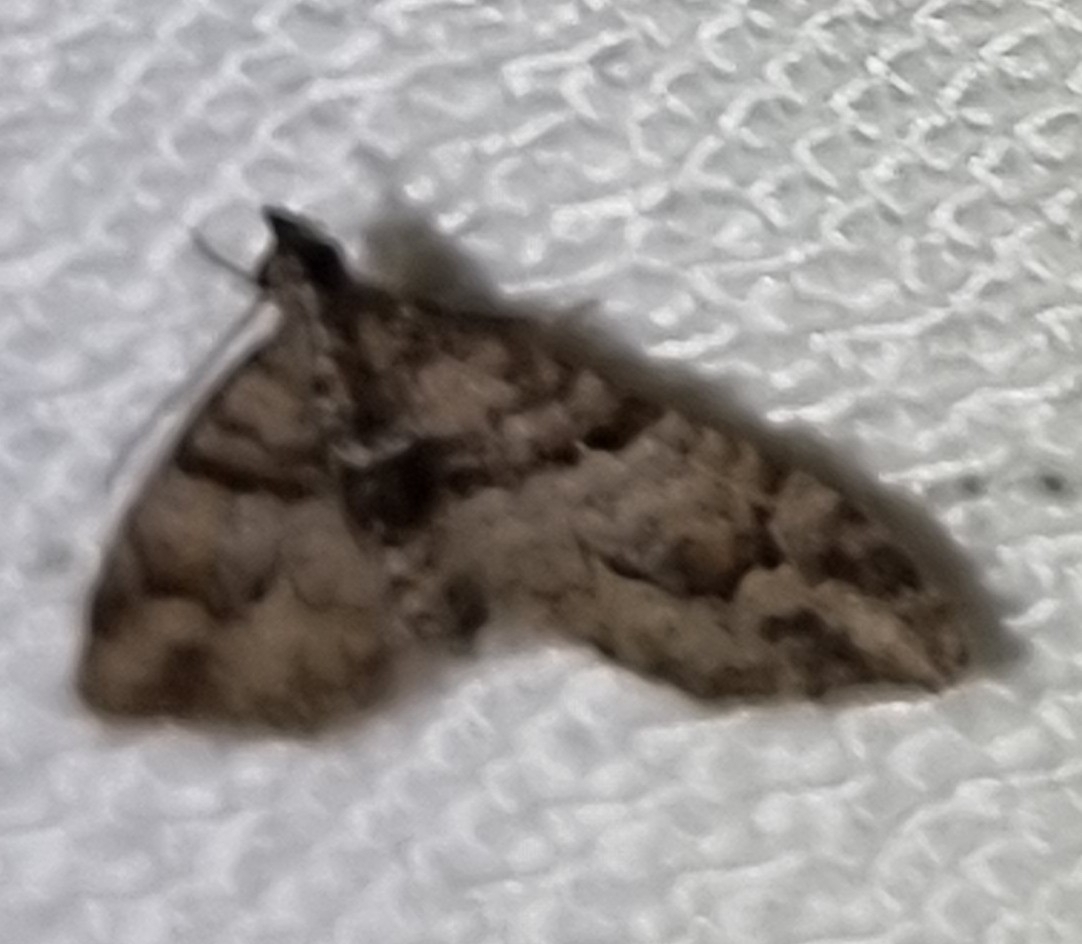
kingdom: Animalia
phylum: Arthropoda
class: Insecta
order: Lepidoptera
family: Geometridae
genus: Phrissogonus
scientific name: Phrissogonus laticostata
